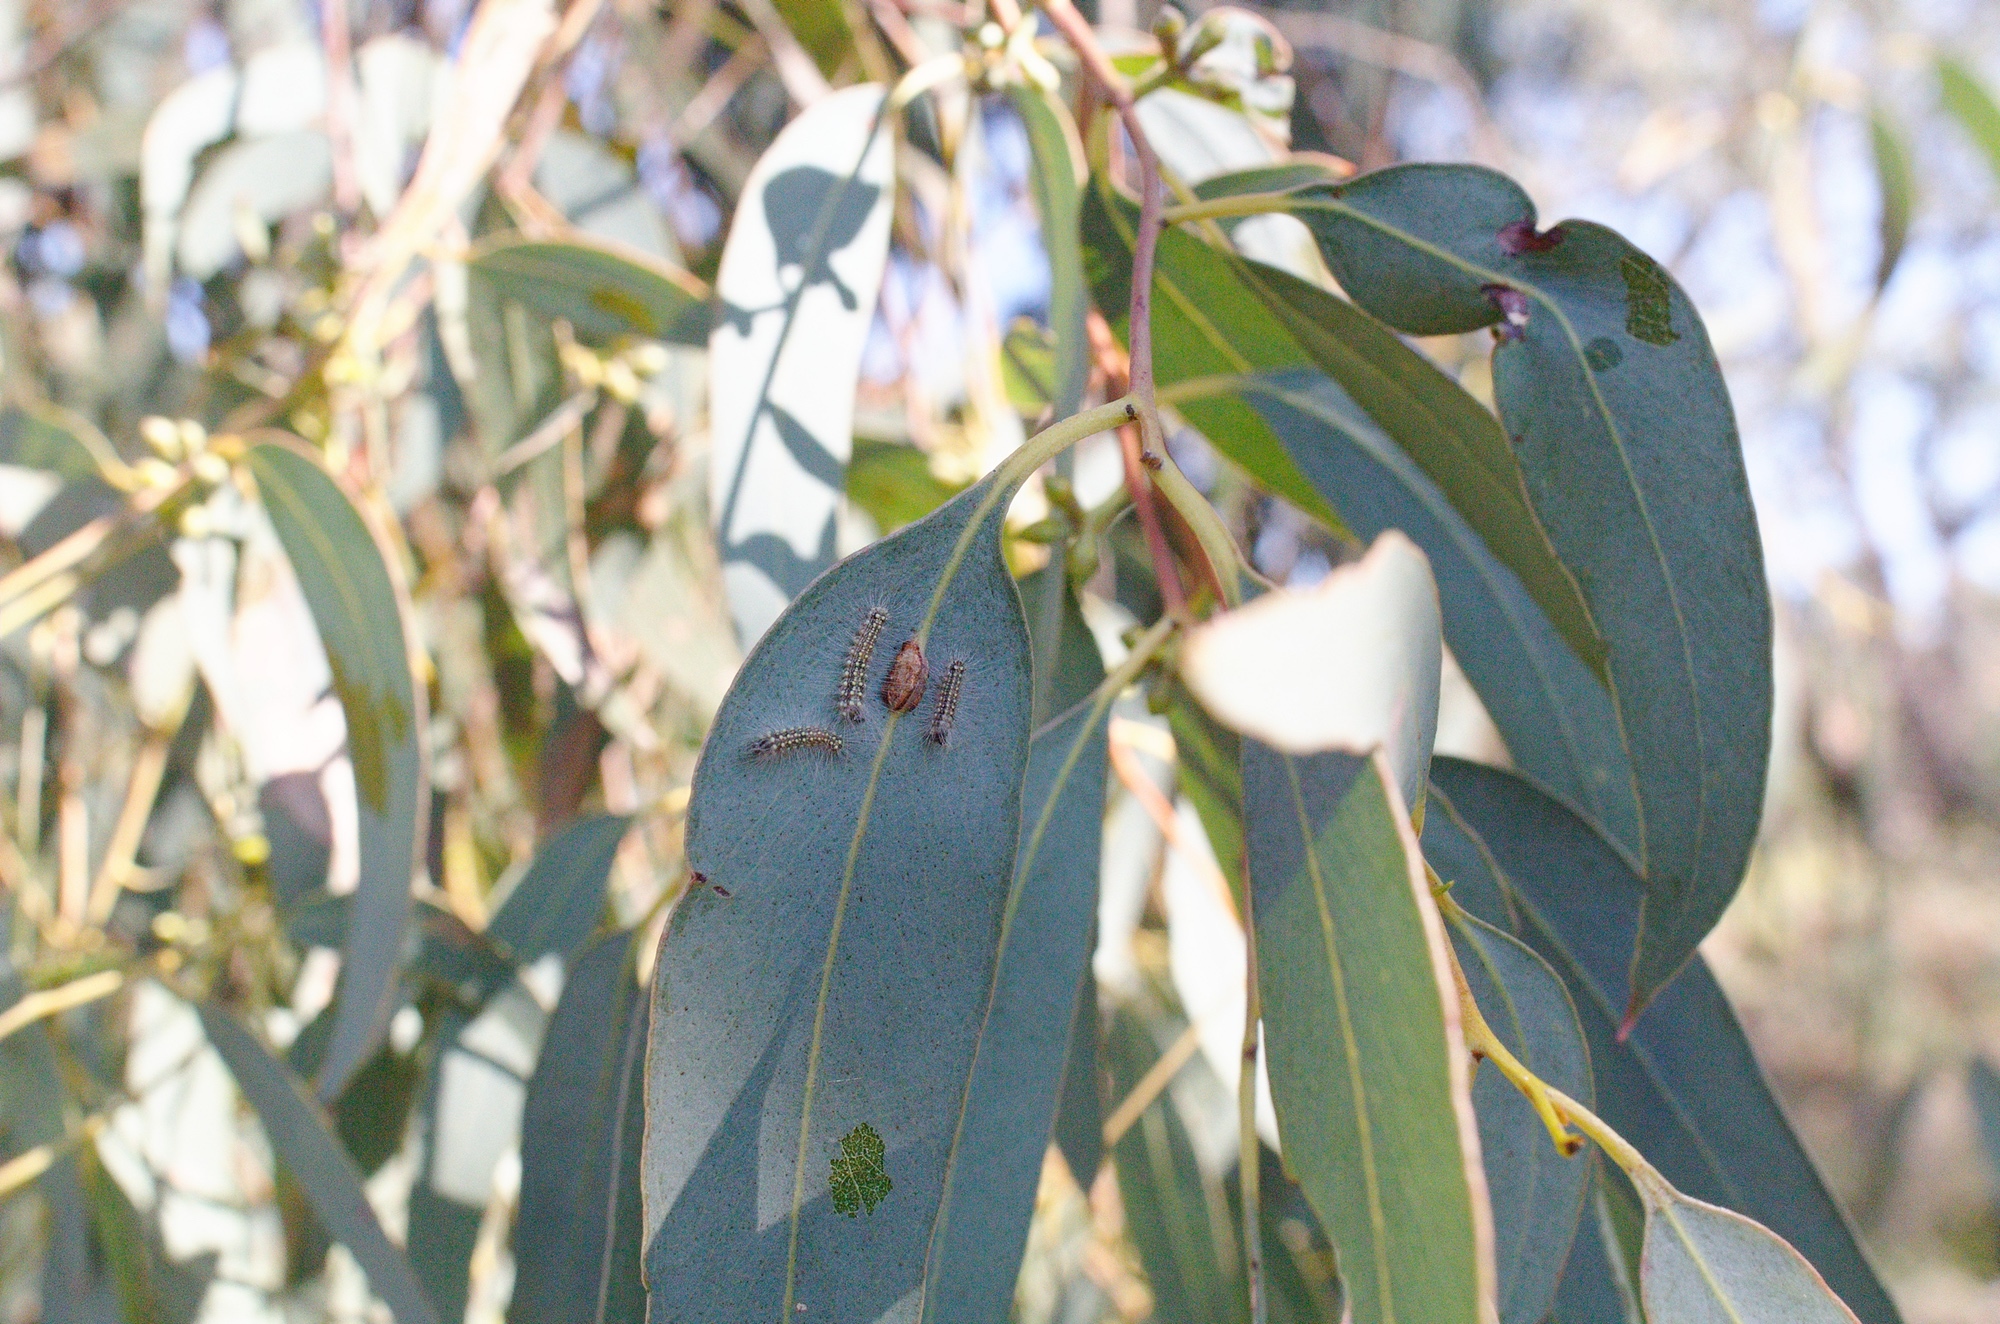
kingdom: Animalia
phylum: Arthropoda
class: Insecta
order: Lepidoptera
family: Nolidae
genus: Uraba
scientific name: Uraba lugens
